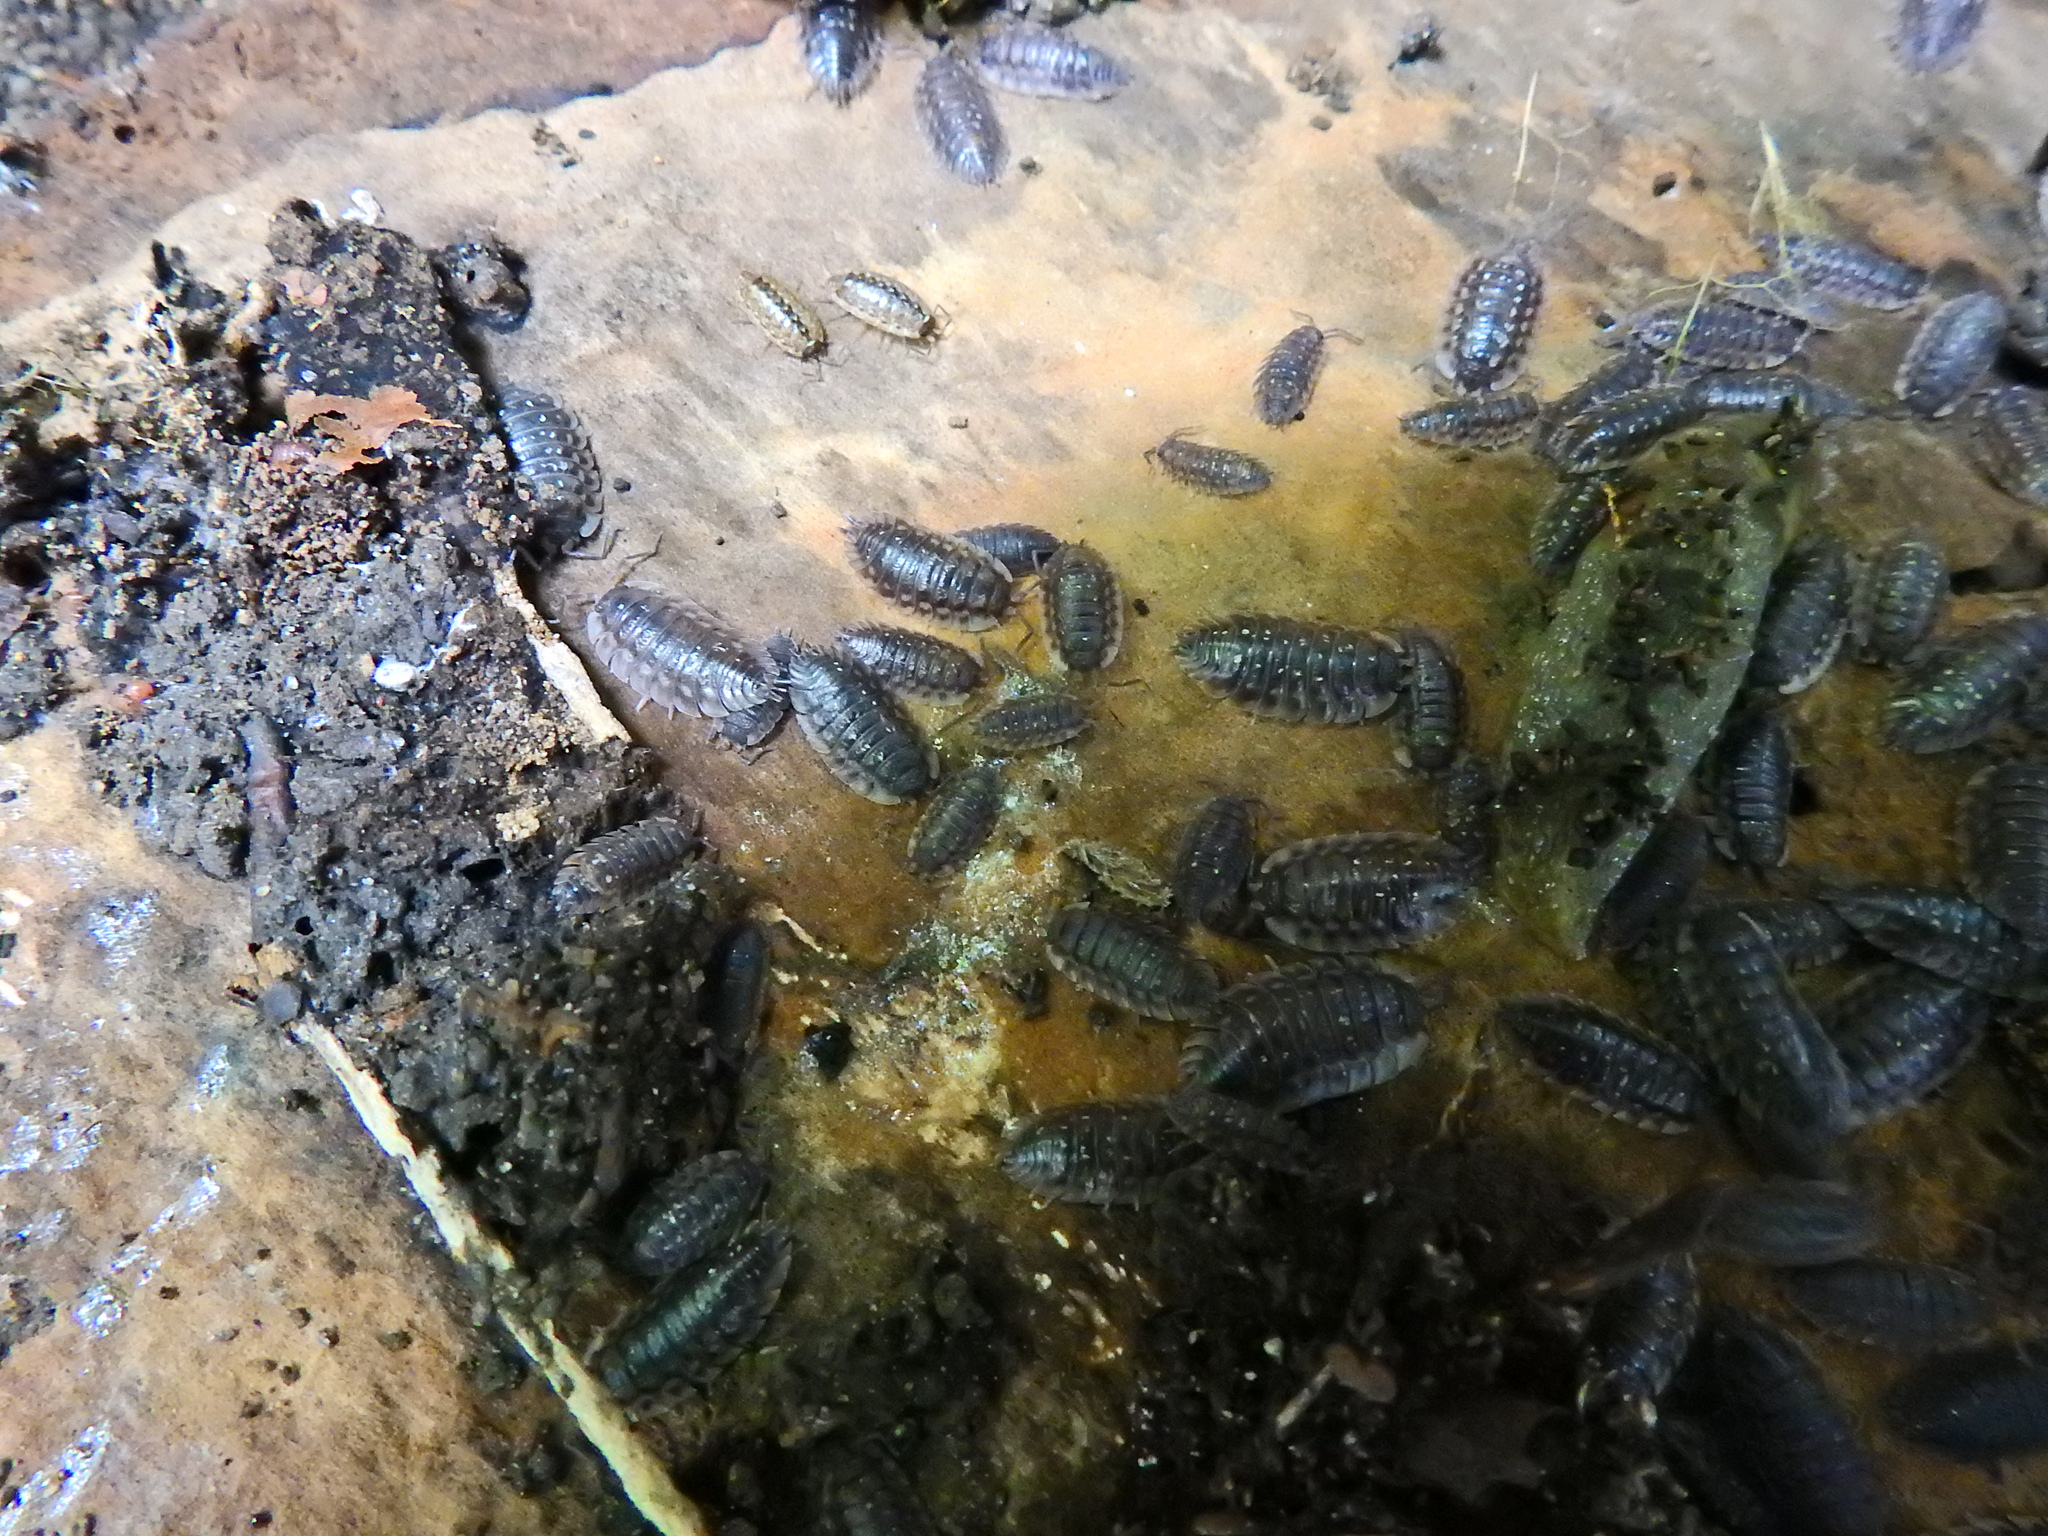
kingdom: Animalia
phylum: Arthropoda
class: Malacostraca
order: Isopoda
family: Oniscidae
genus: Oniscus
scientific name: Oniscus asellus
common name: Common shiny woodlouse
